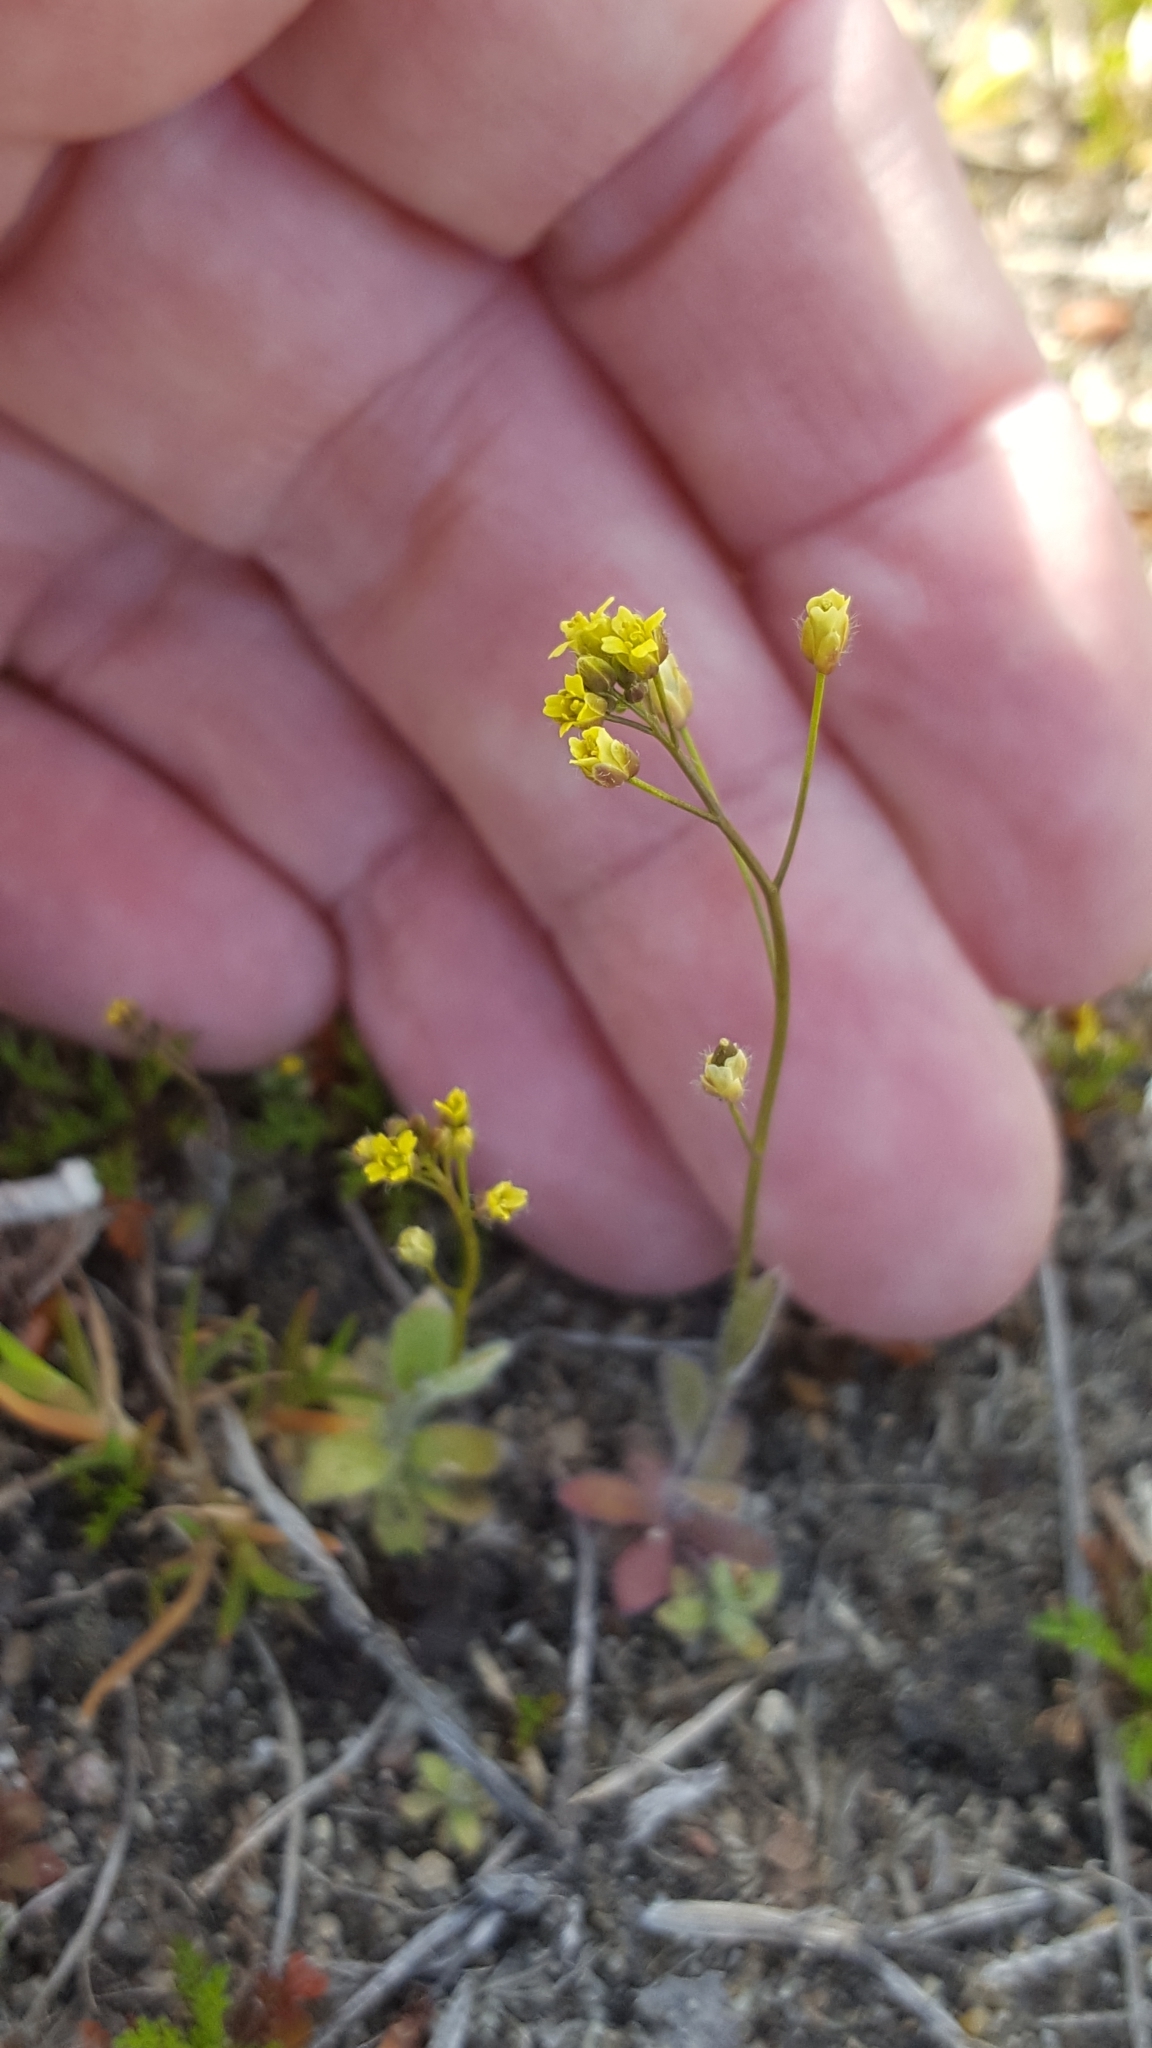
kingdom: Plantae
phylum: Tracheophyta
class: Magnoliopsida
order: Brassicales
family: Brassicaceae
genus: Draba
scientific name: Draba nemorosa
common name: Wood whitlow-grass
